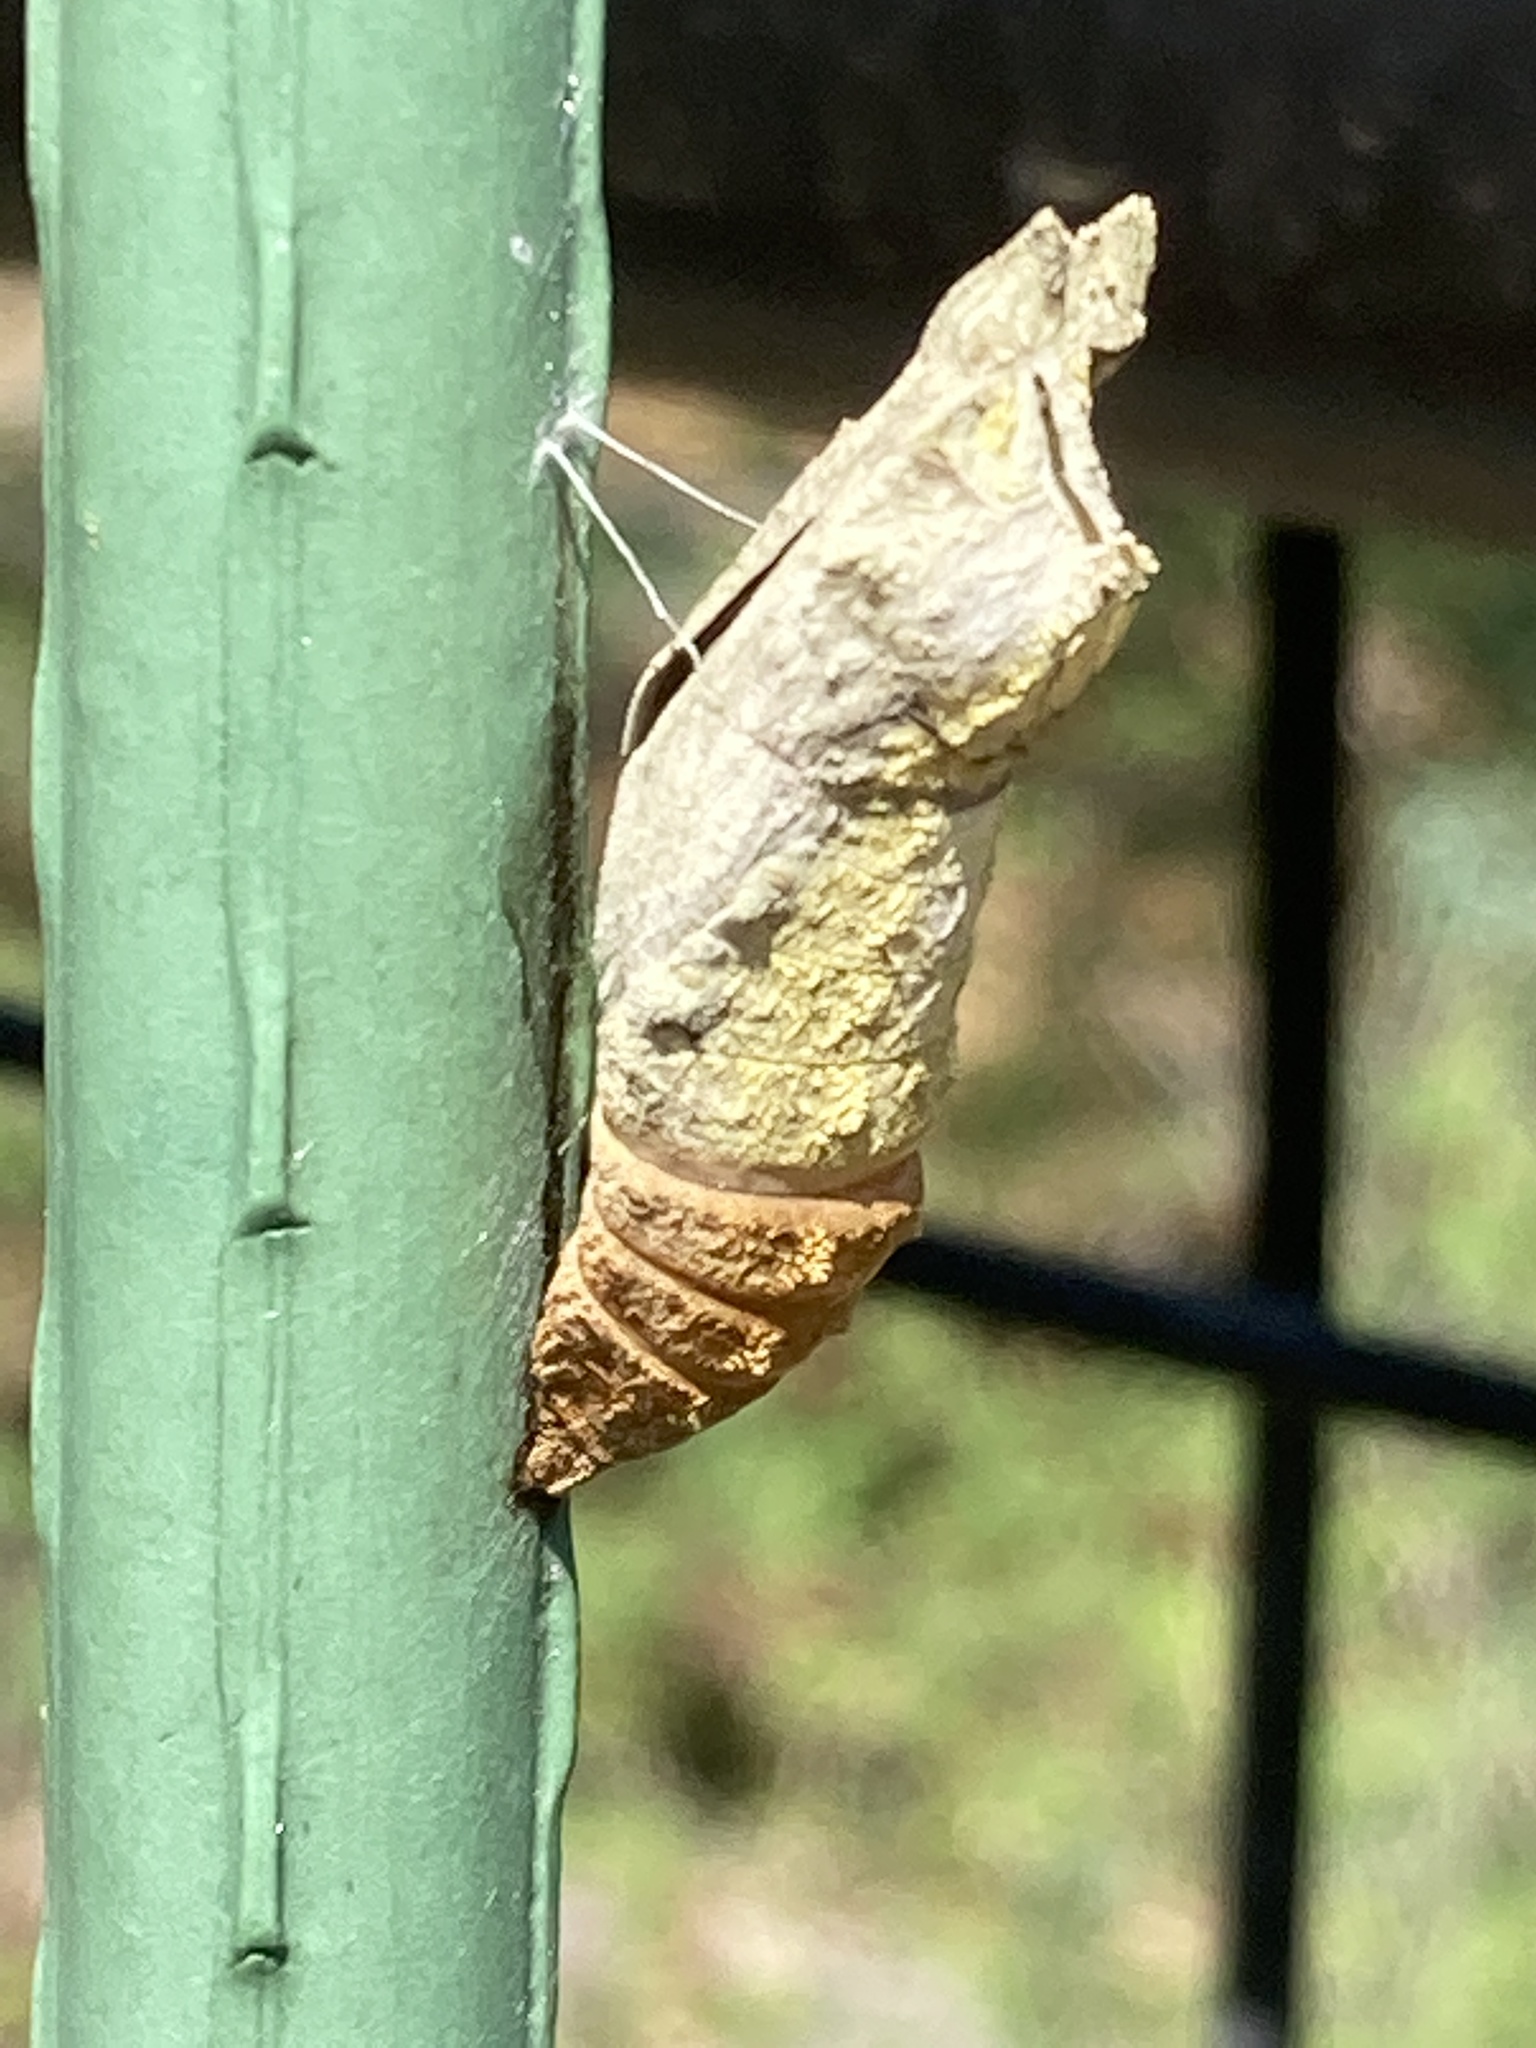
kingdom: Animalia
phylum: Arthropoda
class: Insecta
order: Lepidoptera
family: Papilionidae
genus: Papilio
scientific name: Papilio polyxenes
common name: Black swallowtail
